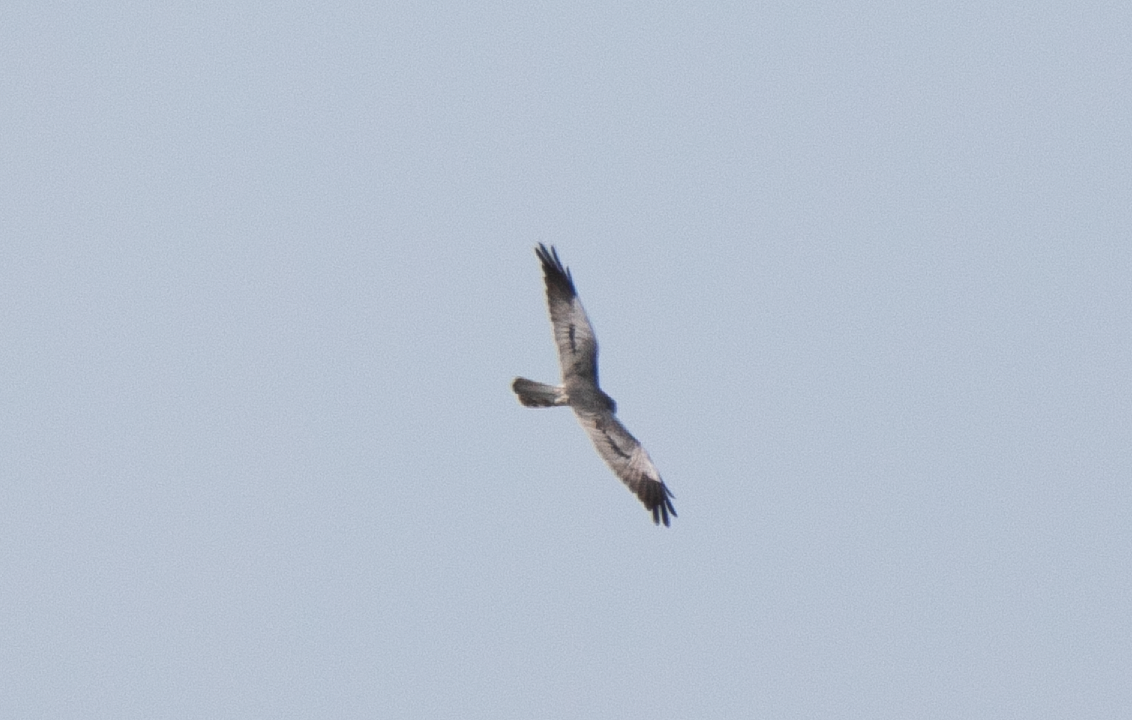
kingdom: Animalia
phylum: Chordata
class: Aves
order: Accipitriformes
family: Accipitridae
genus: Circus
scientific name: Circus pygargus
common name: Montagu's harrier
